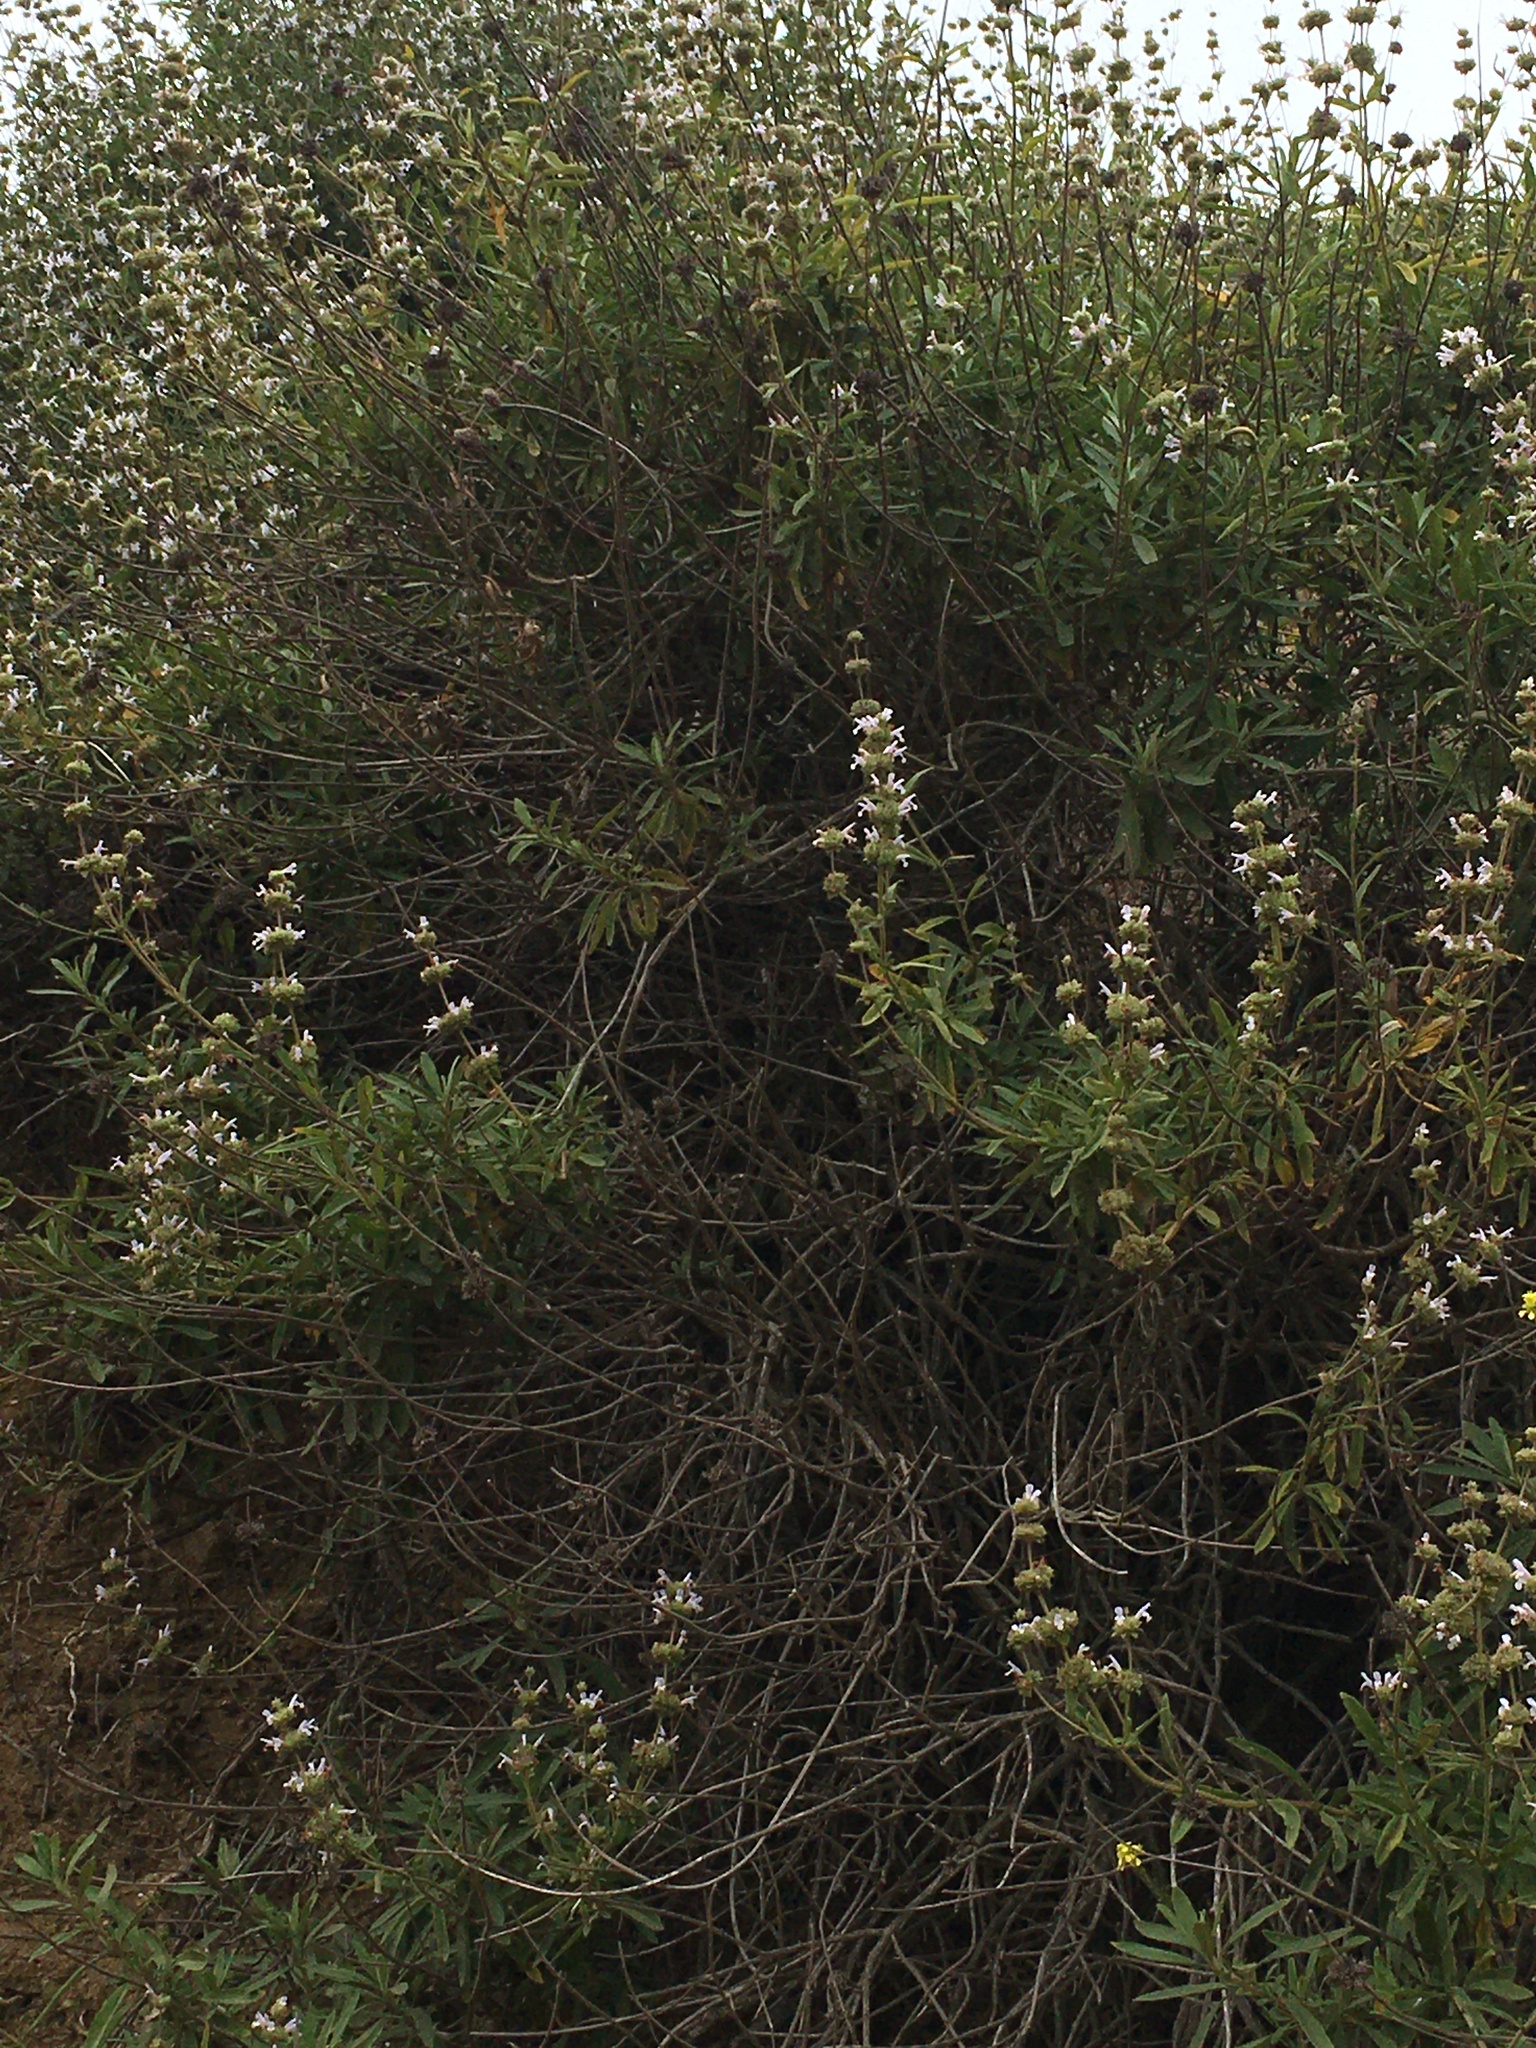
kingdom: Plantae
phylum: Tracheophyta
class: Magnoliopsida
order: Lamiales
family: Lamiaceae
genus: Salvia
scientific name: Salvia mellifera
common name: Black sage
